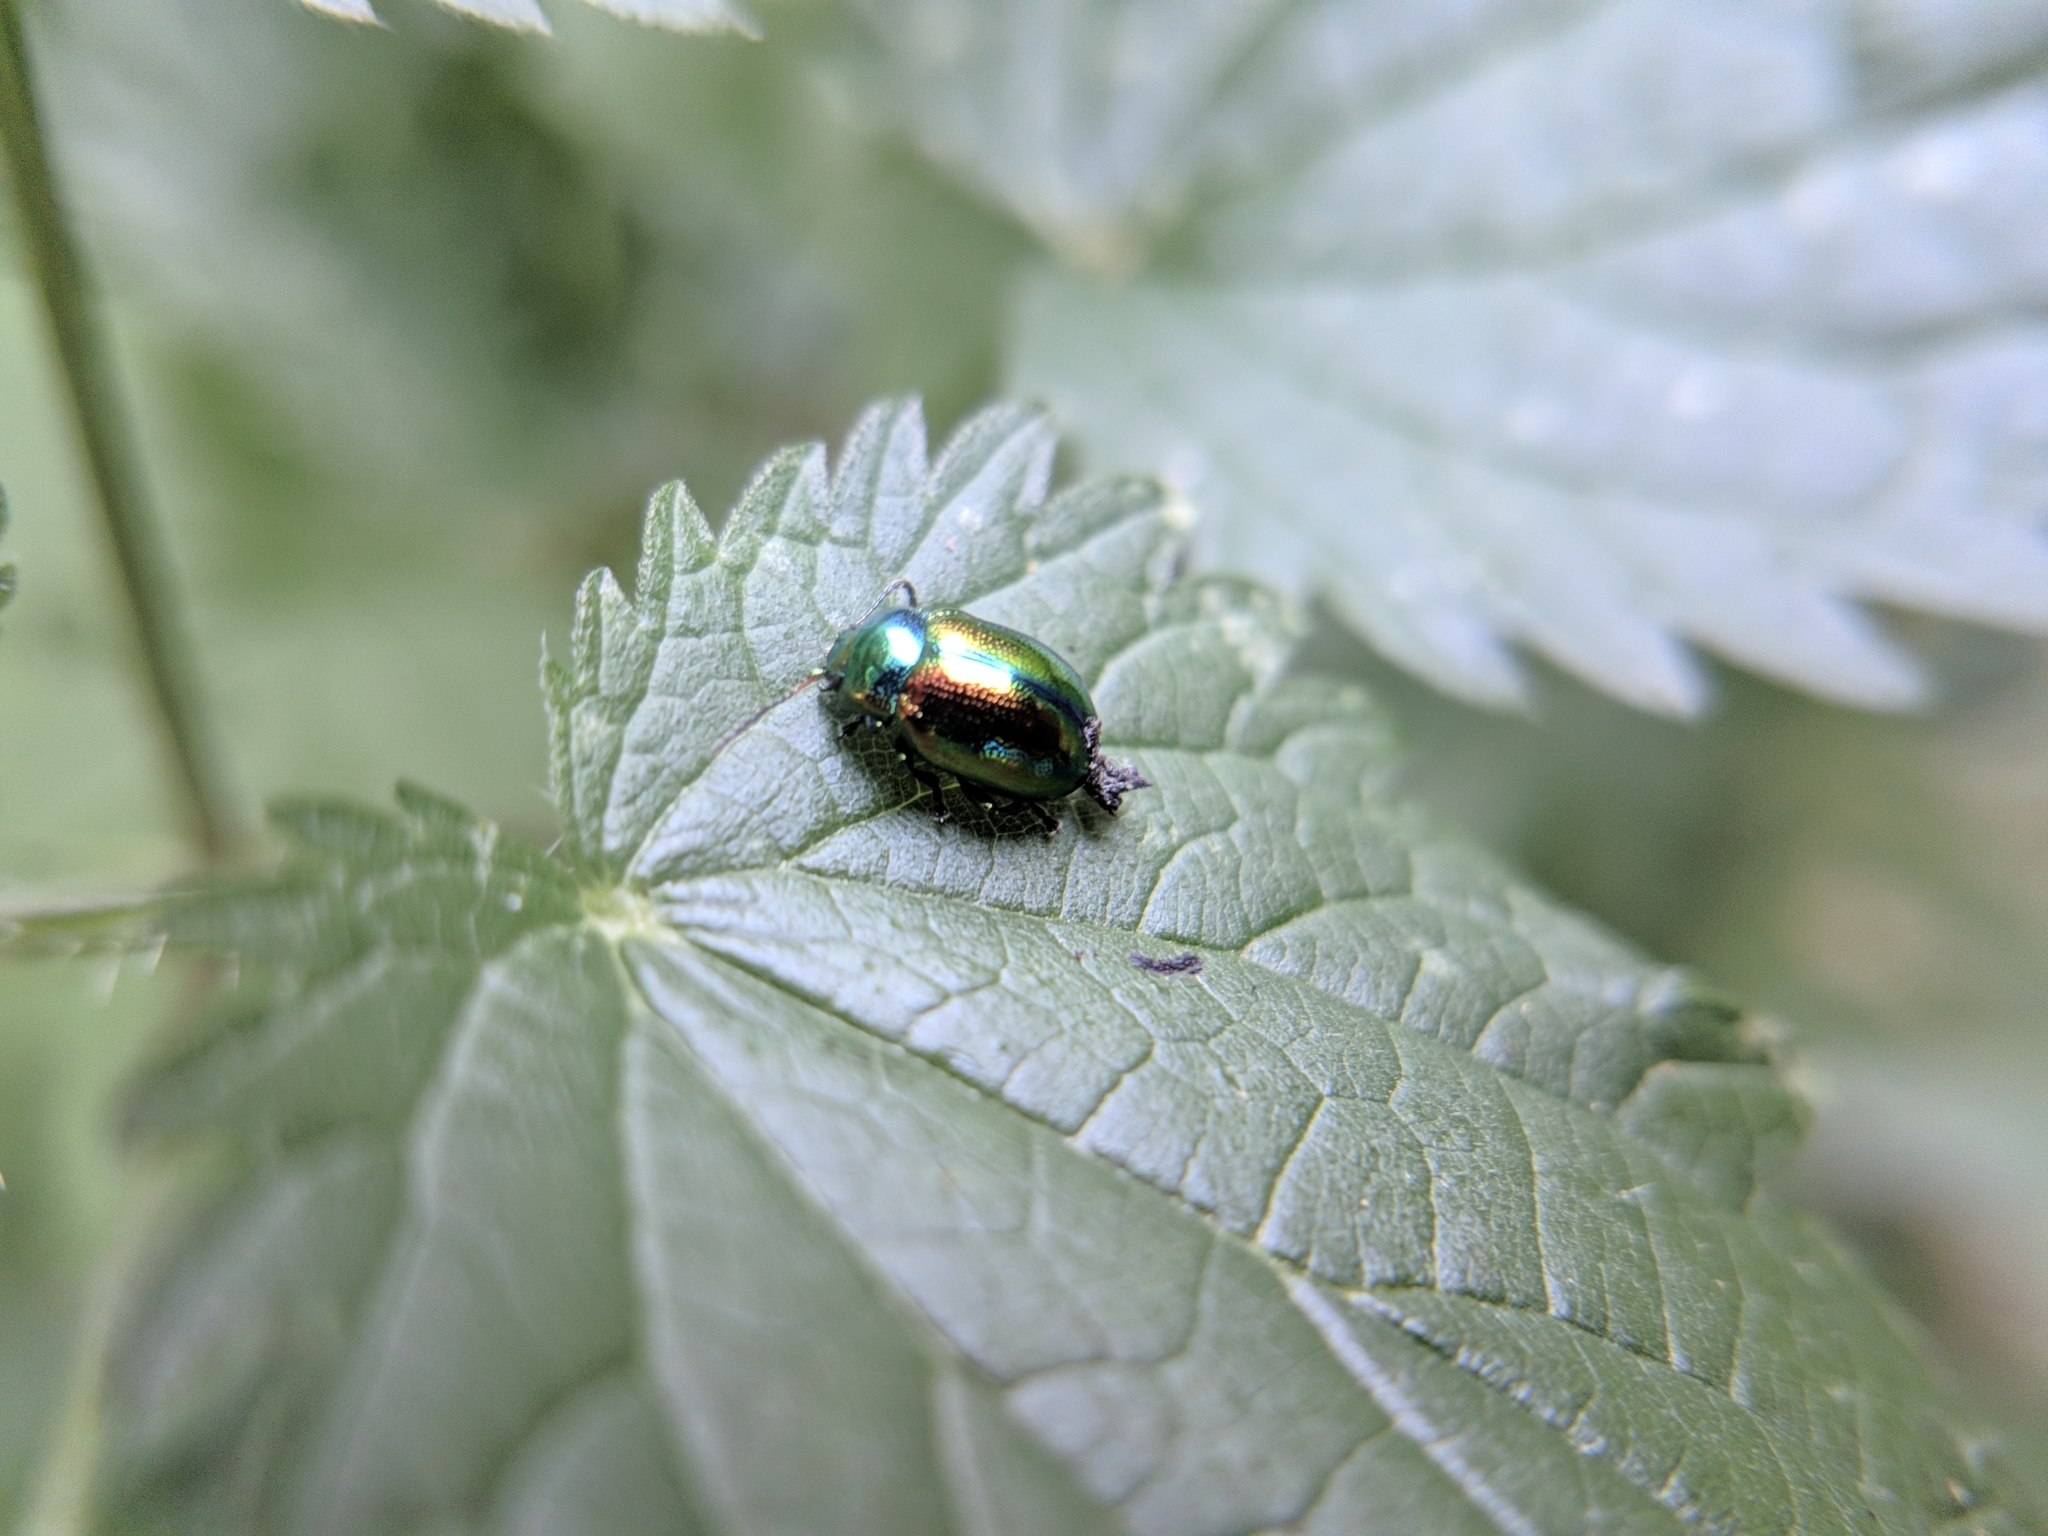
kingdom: Animalia
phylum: Arthropoda
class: Insecta
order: Coleoptera
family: Chrysomelidae
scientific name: Chrysomelidae
